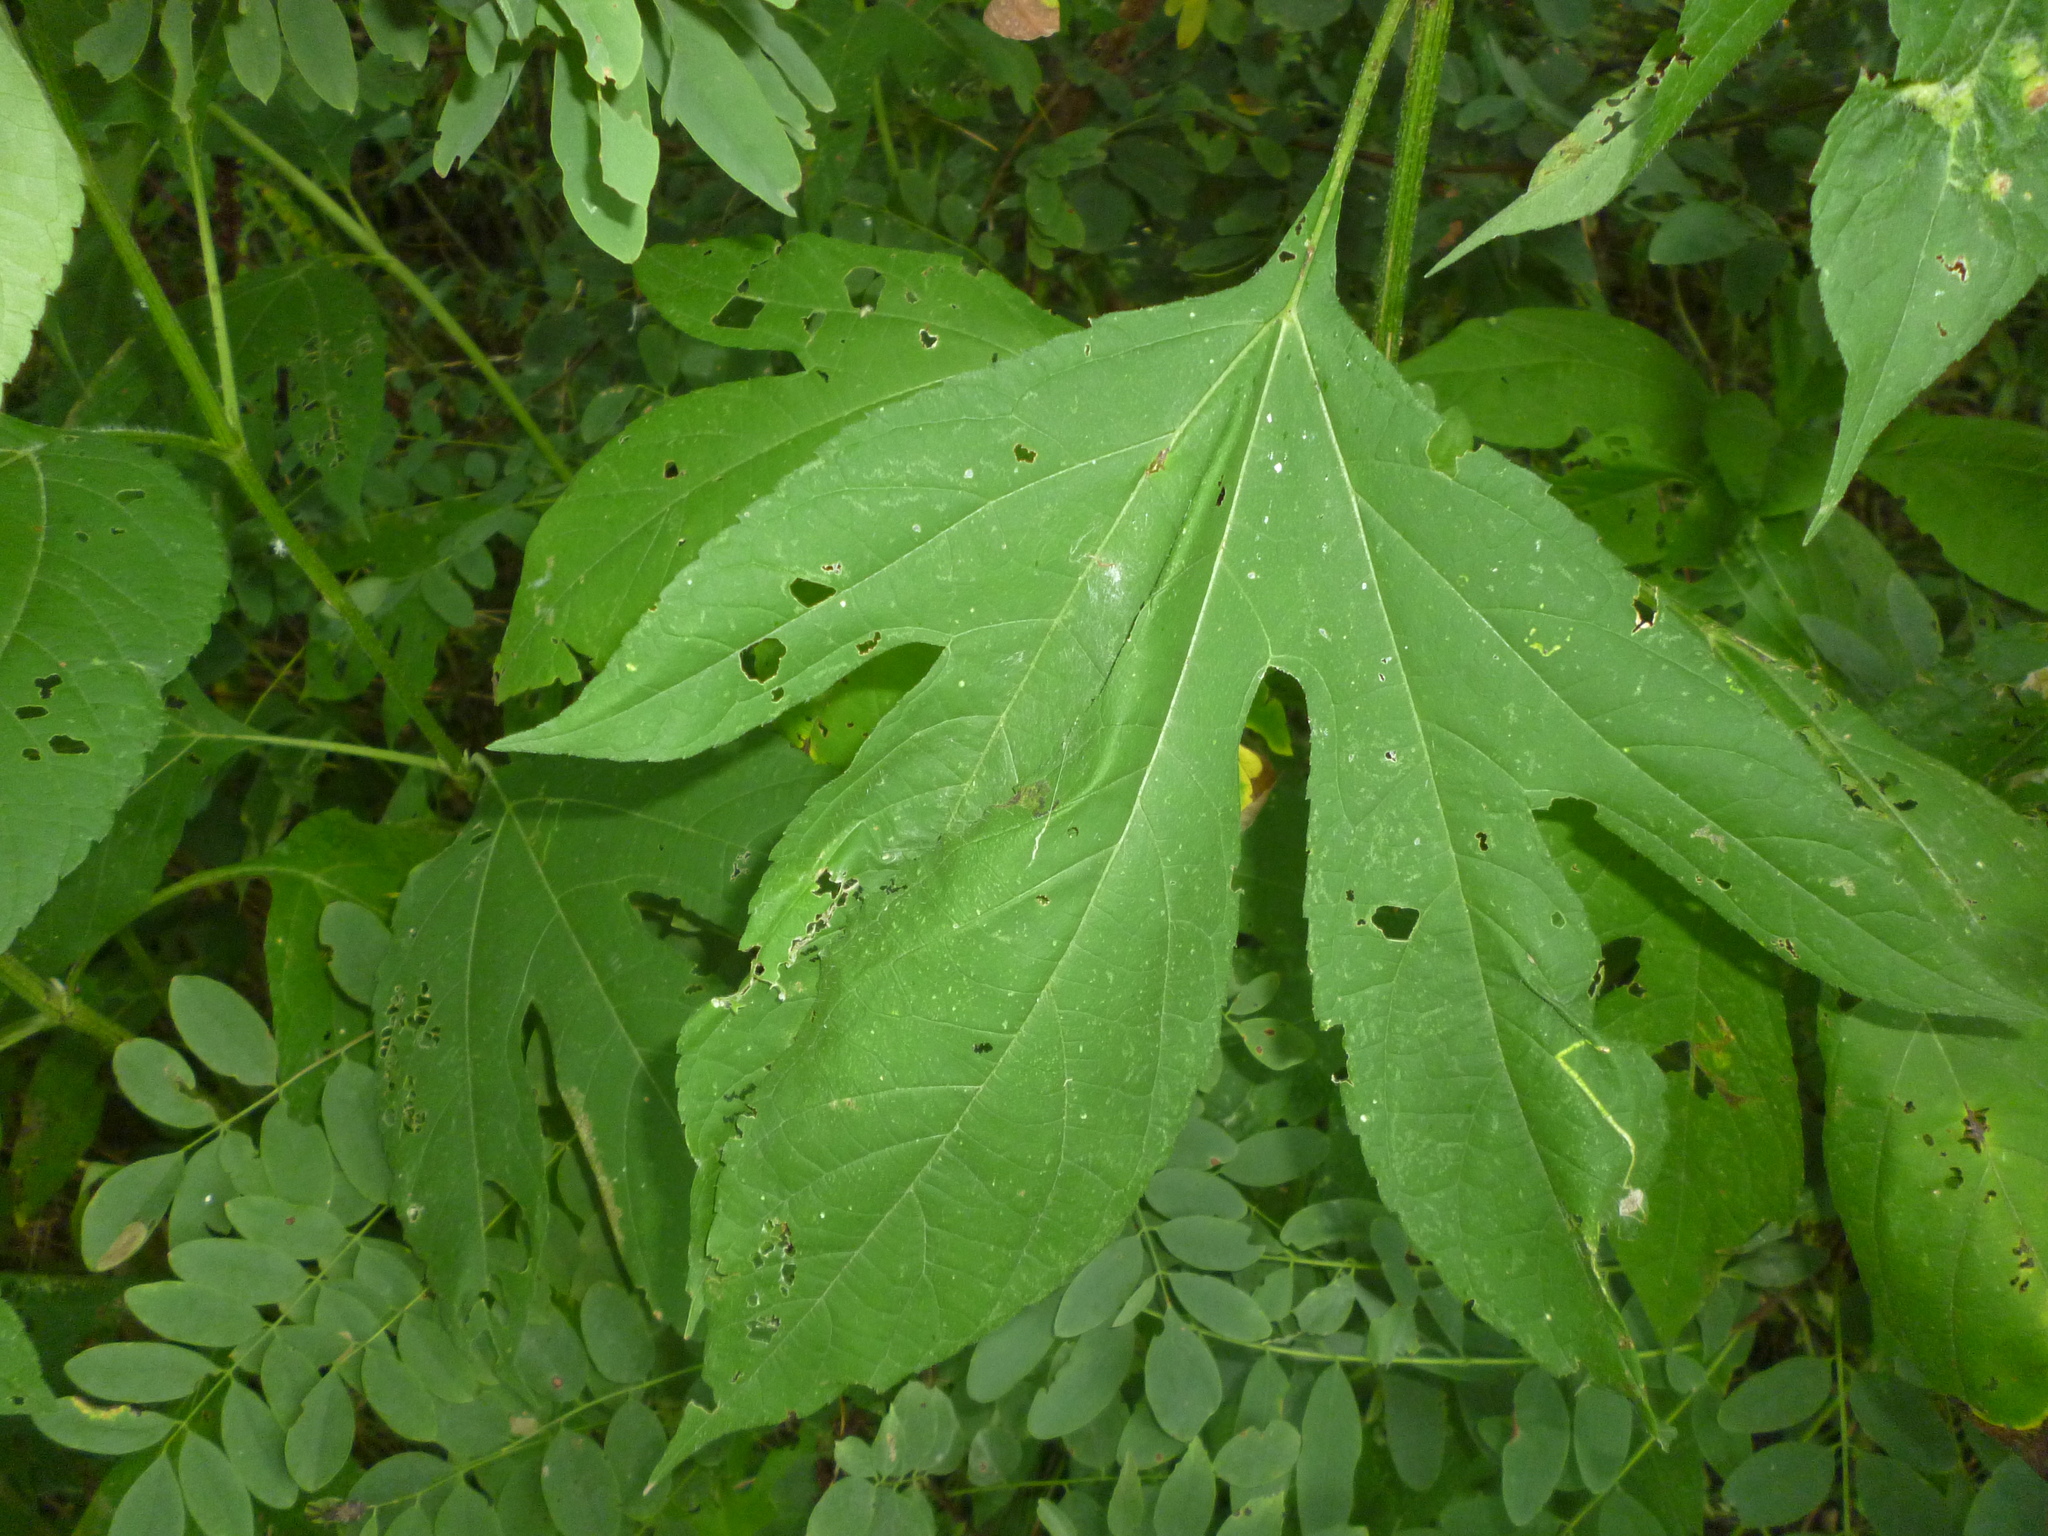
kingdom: Plantae
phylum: Tracheophyta
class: Magnoliopsida
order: Asterales
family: Asteraceae
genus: Ambrosia
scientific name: Ambrosia trifida
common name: Giant ragweed
